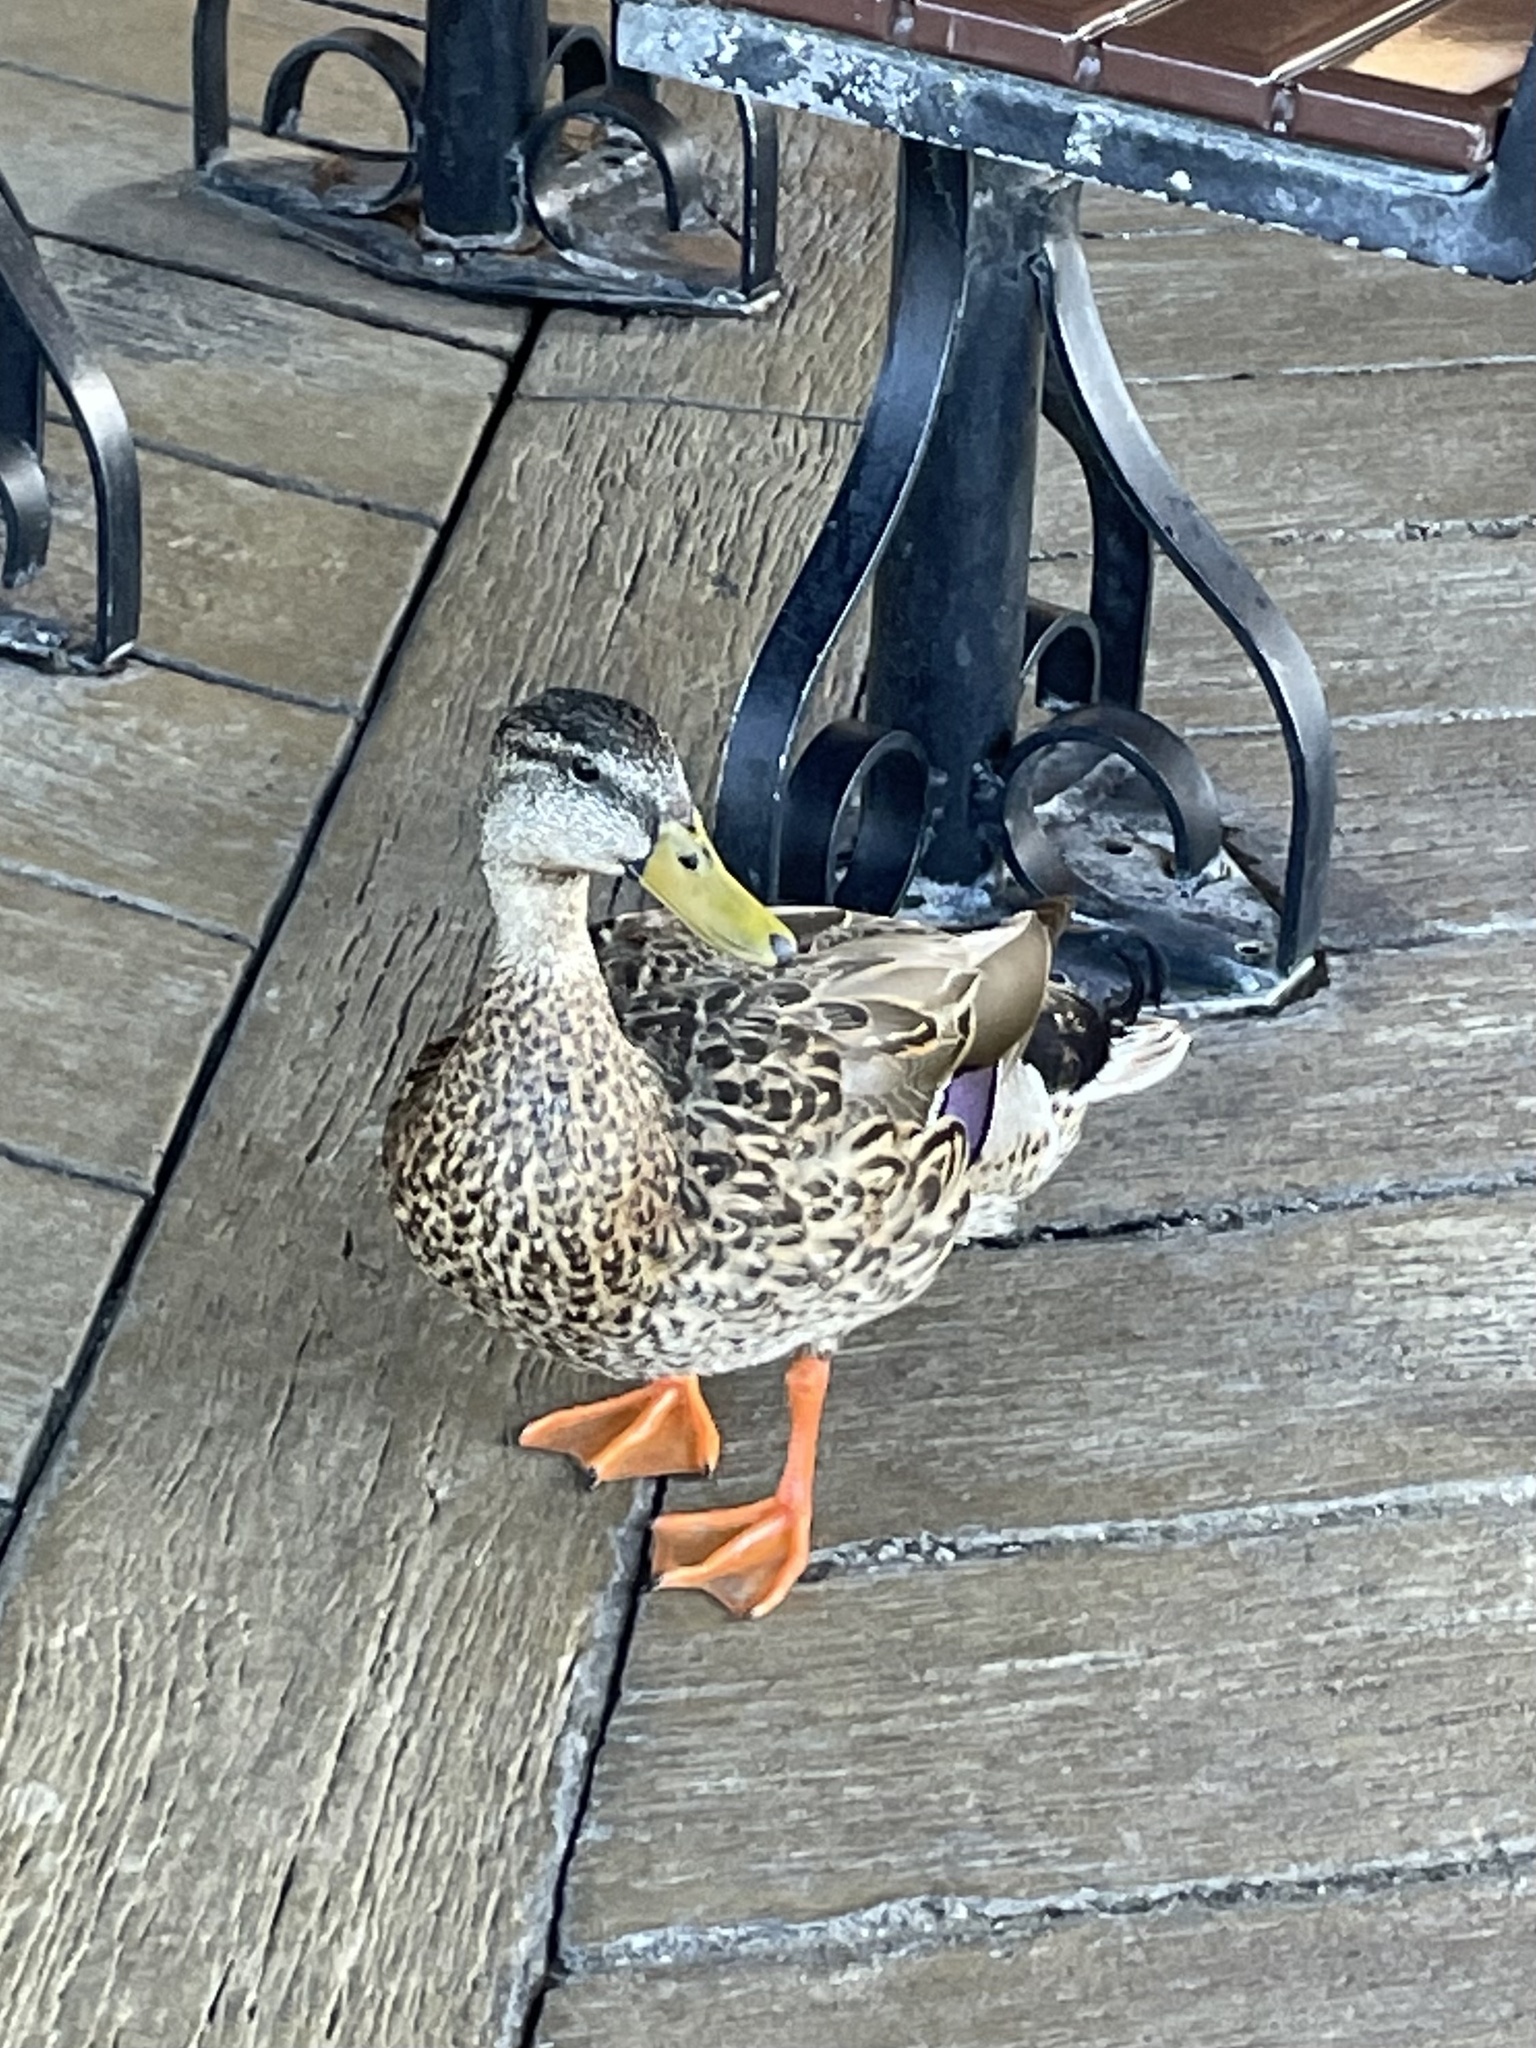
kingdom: Animalia
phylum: Chordata
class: Aves
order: Anseriformes
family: Anatidae
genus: Anas
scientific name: Anas platyrhynchos
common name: Mallard
